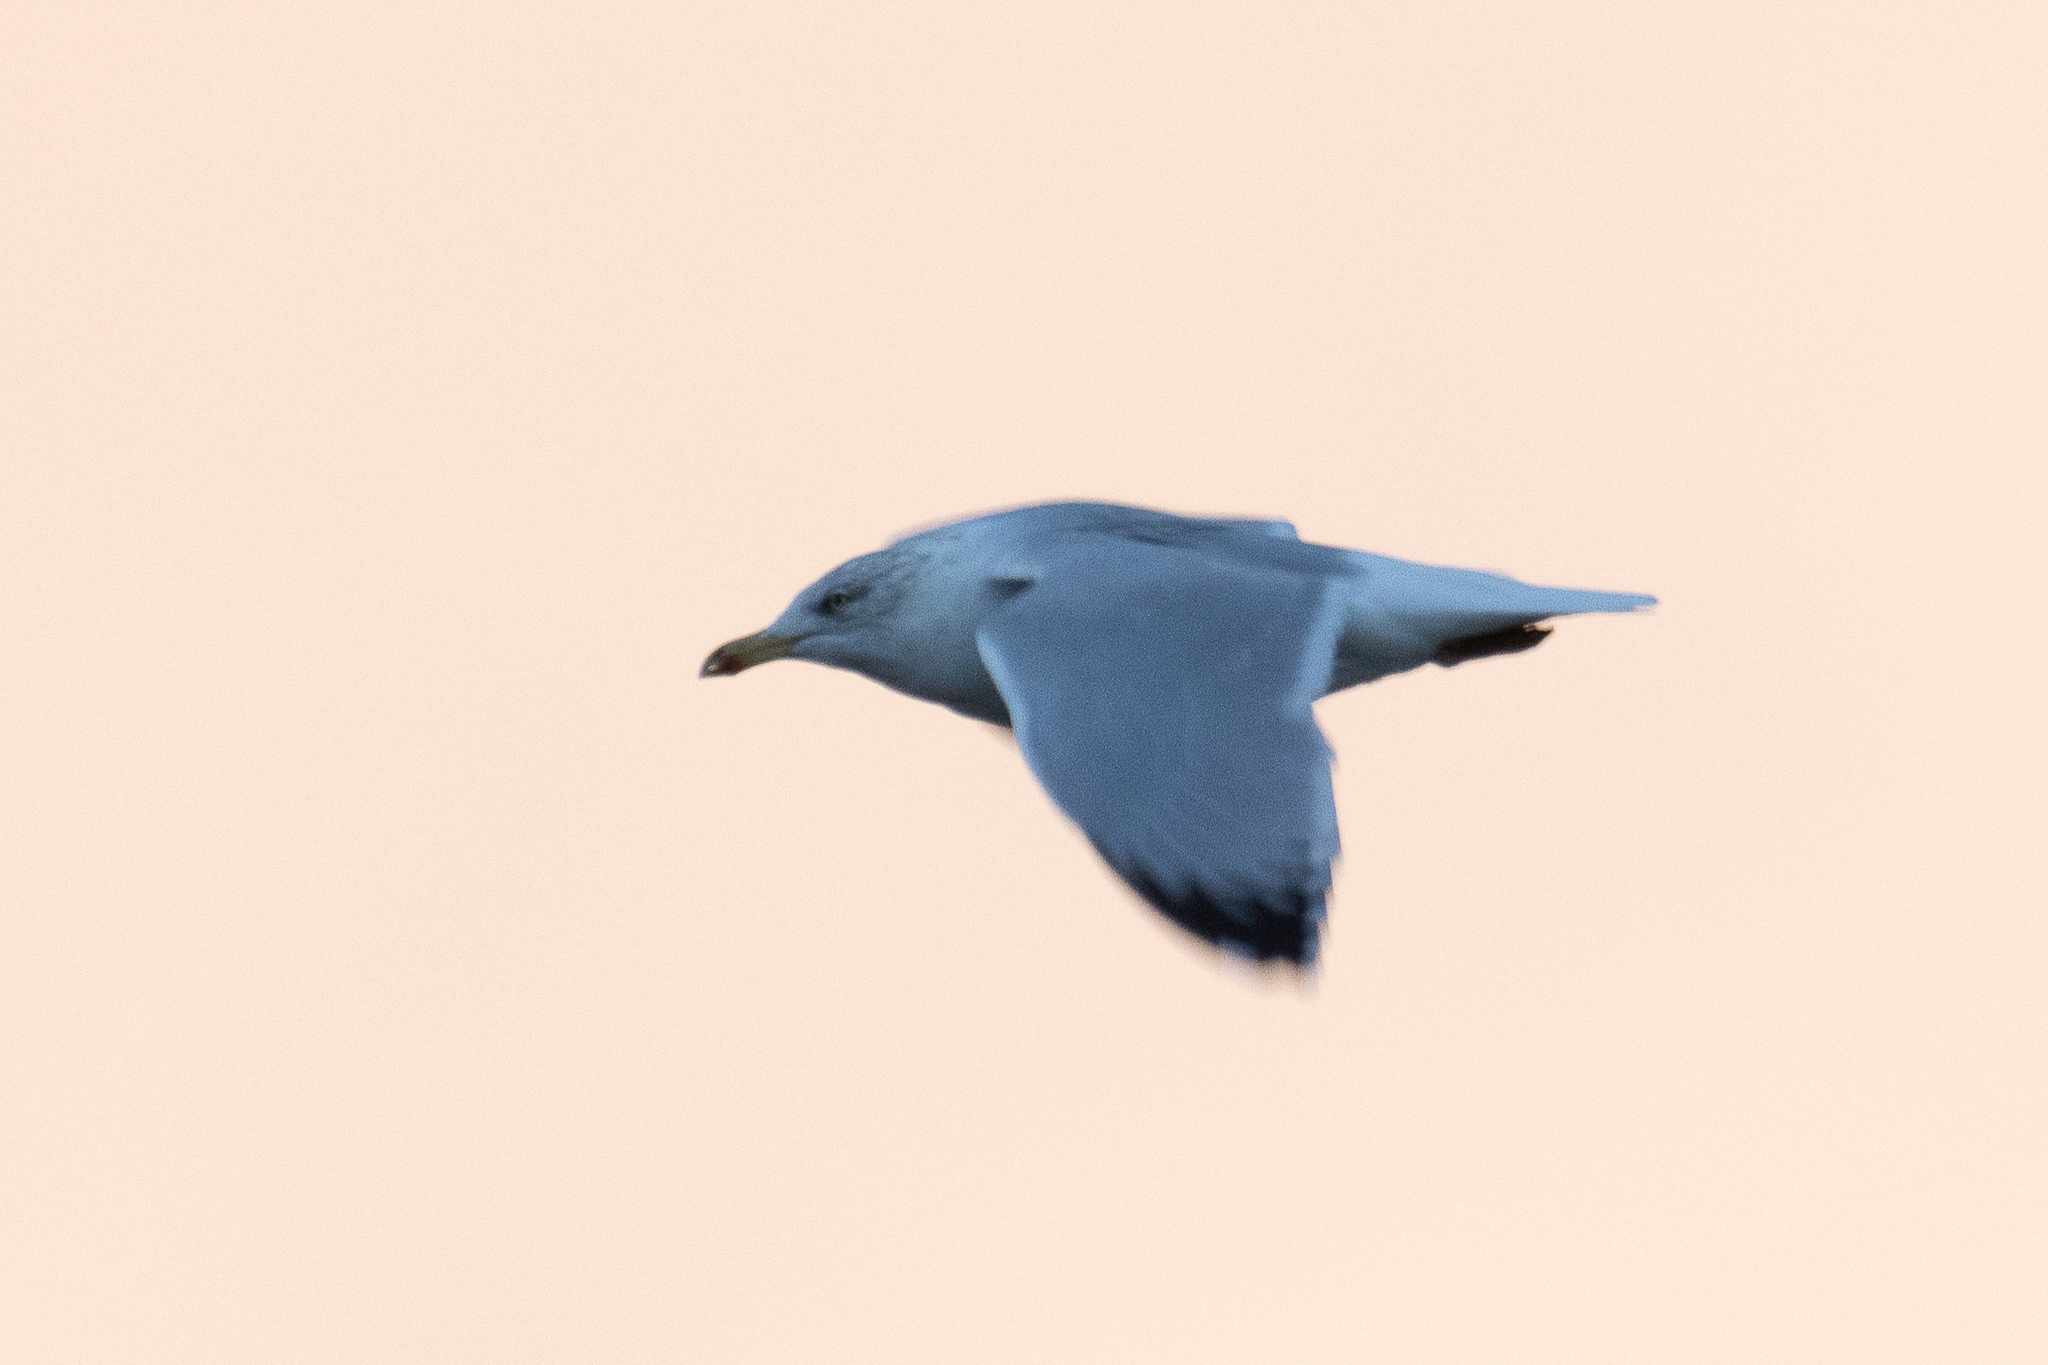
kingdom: Animalia
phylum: Chordata
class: Aves
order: Charadriiformes
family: Laridae
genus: Larus
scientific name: Larus argentatus
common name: Herring gull
